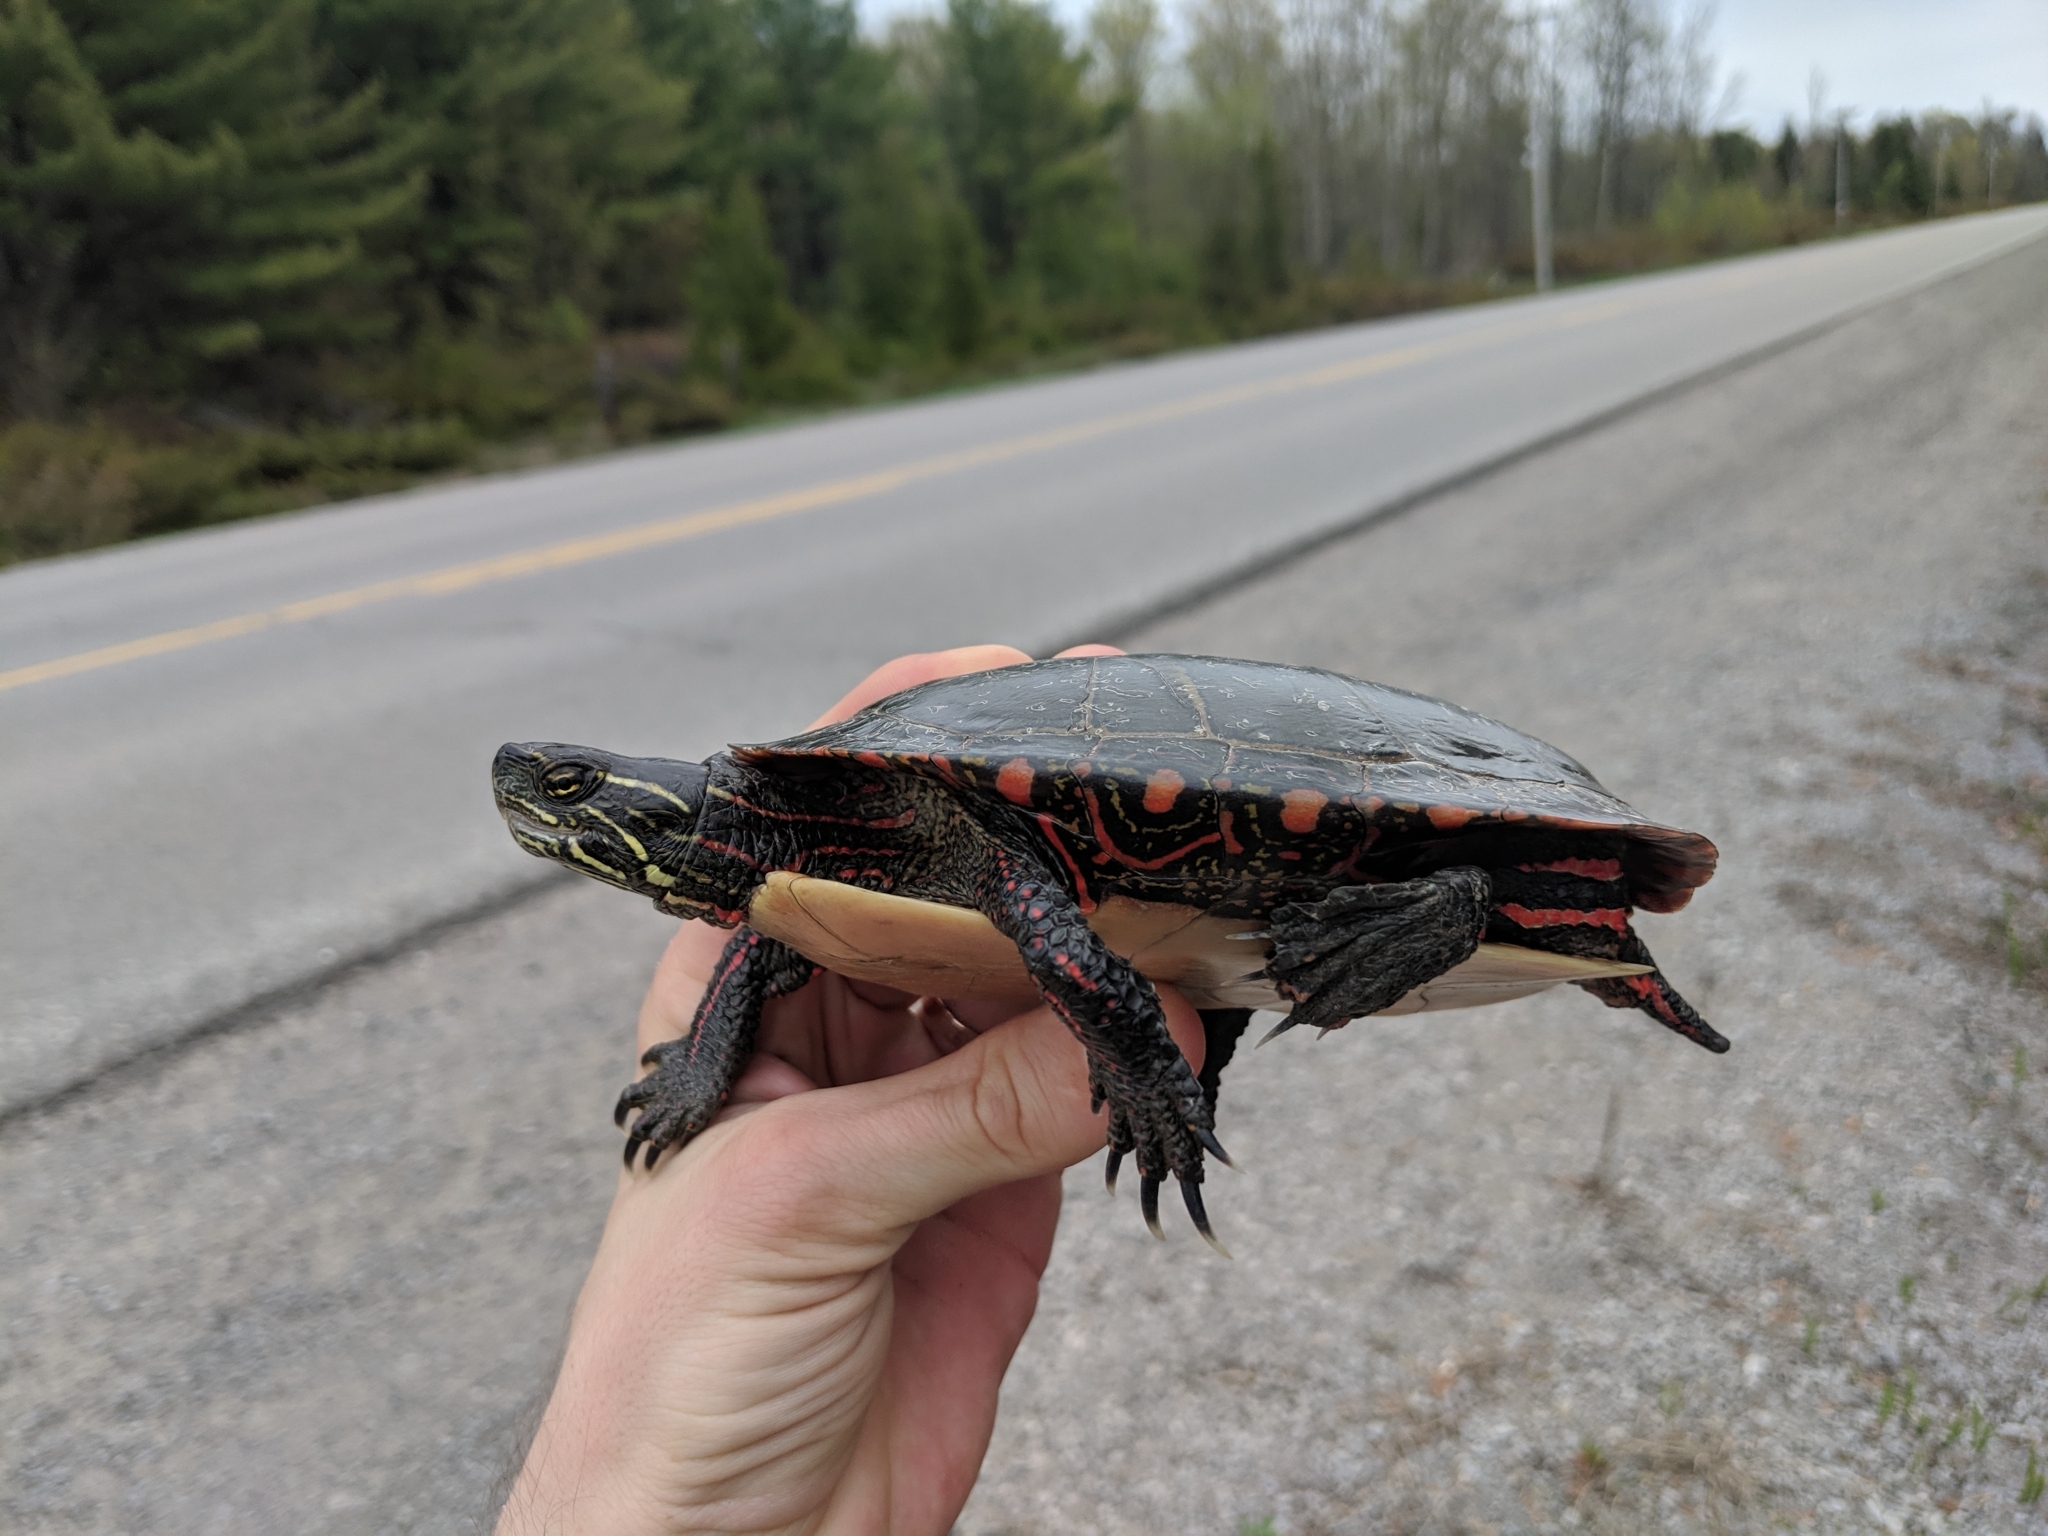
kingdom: Animalia
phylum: Chordata
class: Testudines
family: Emydidae
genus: Chrysemys
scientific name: Chrysemys picta
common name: Painted turtle
